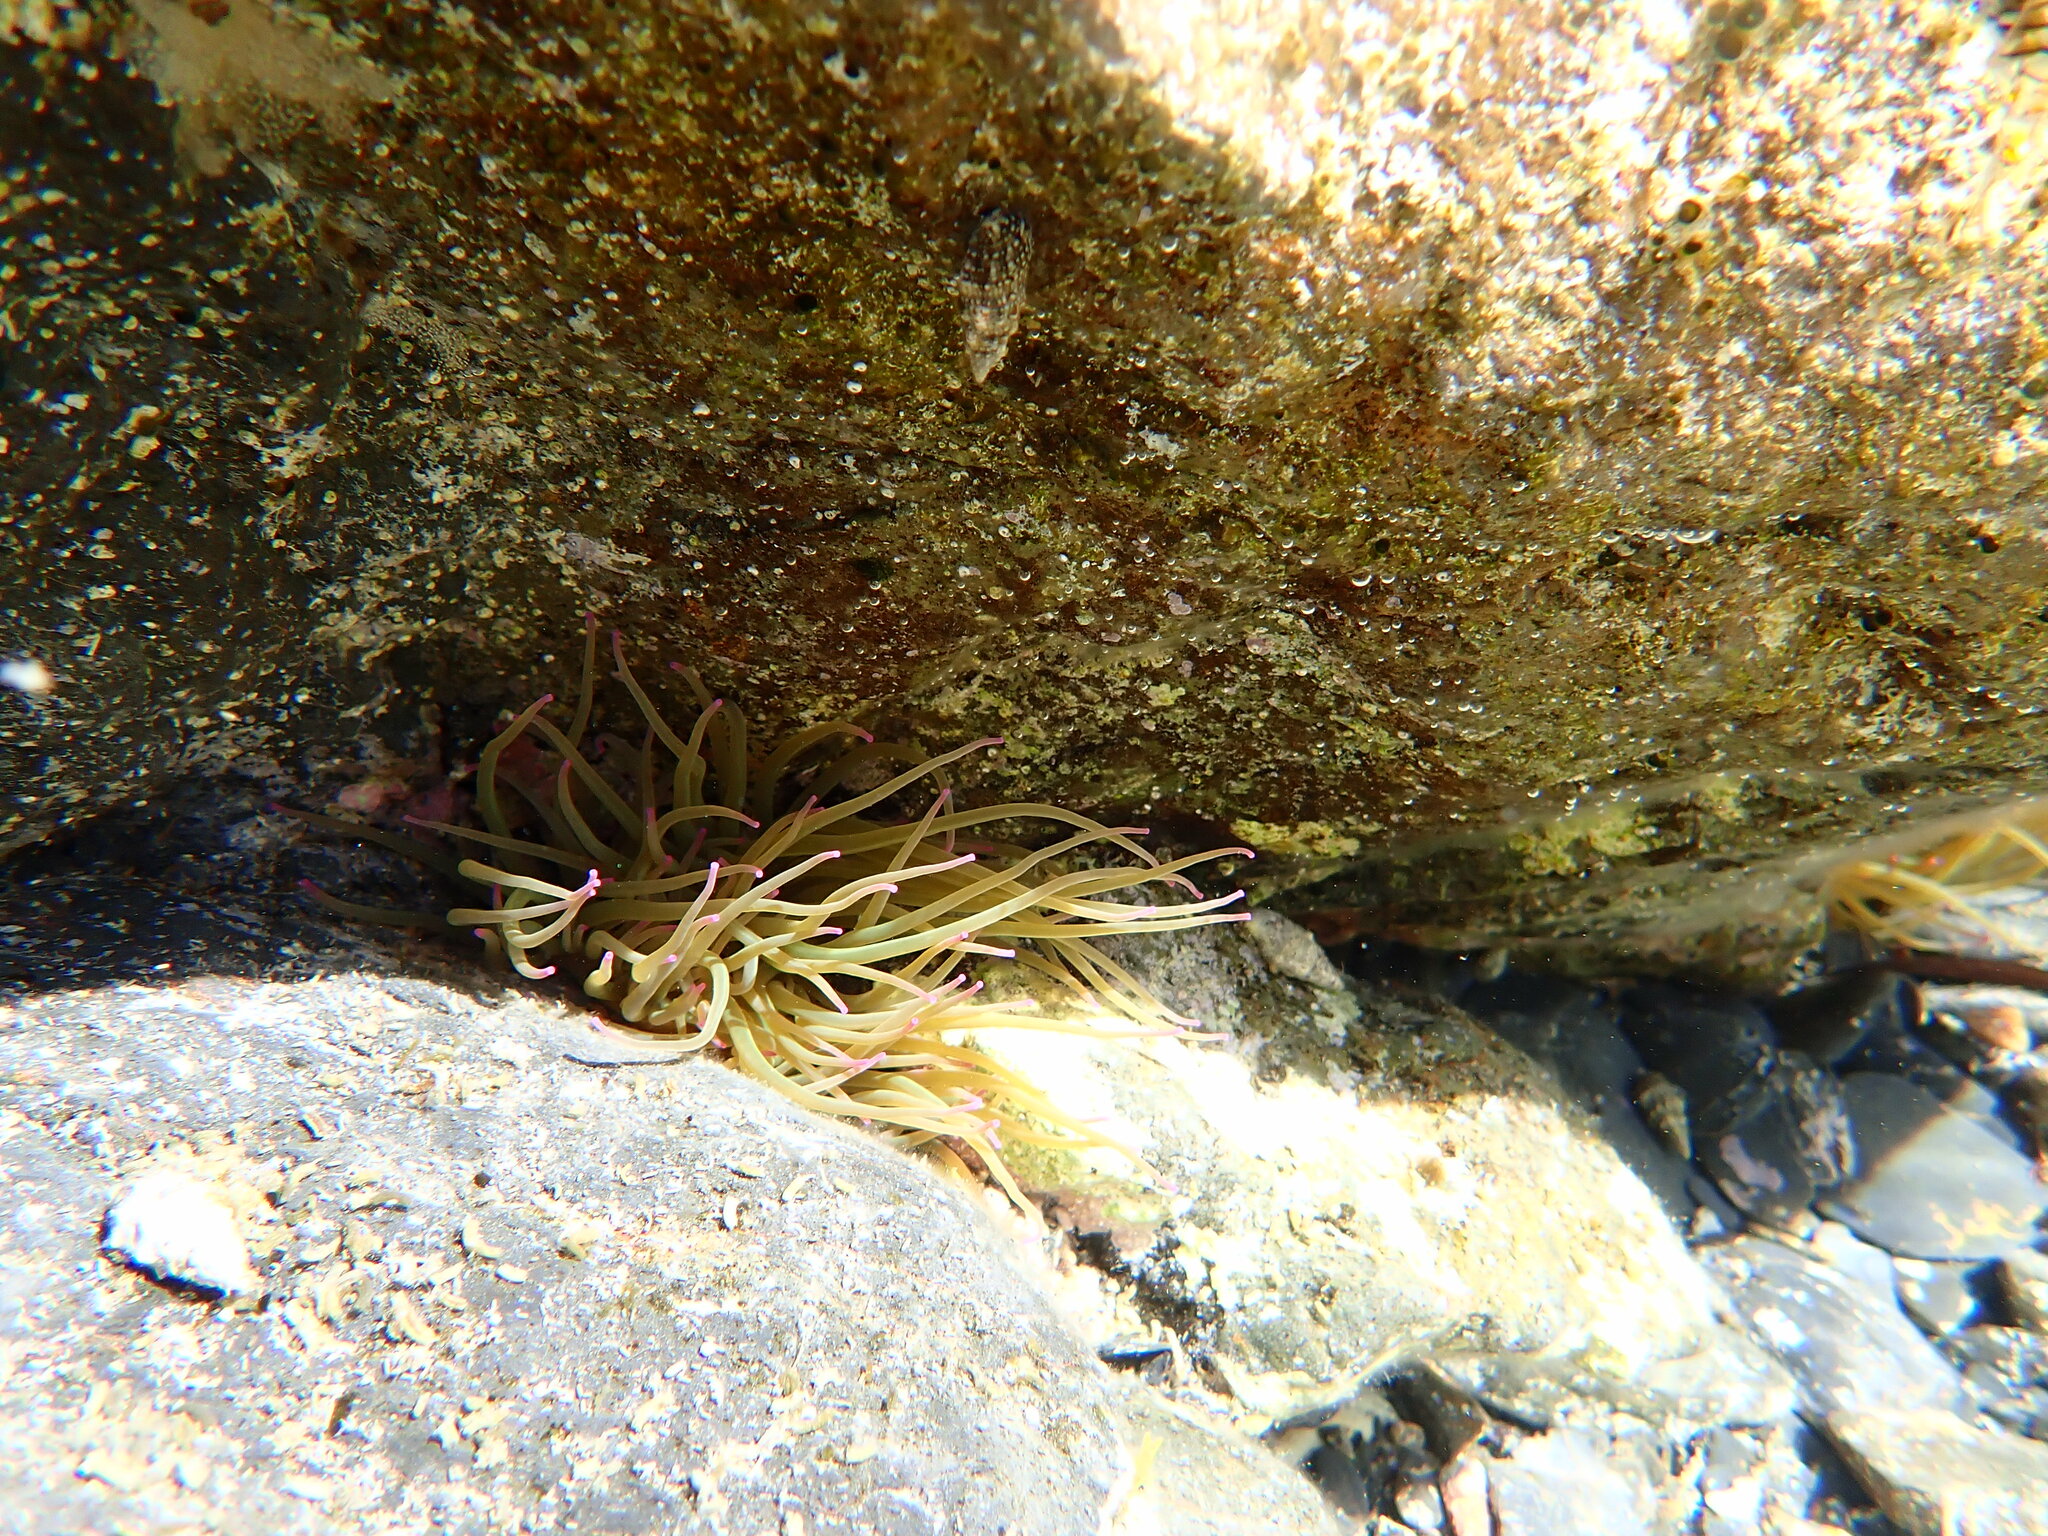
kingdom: Animalia
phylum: Cnidaria
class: Anthozoa
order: Actiniaria
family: Actiniidae
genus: Anemonia
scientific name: Anemonia viridis
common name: Snakelocks anemone
